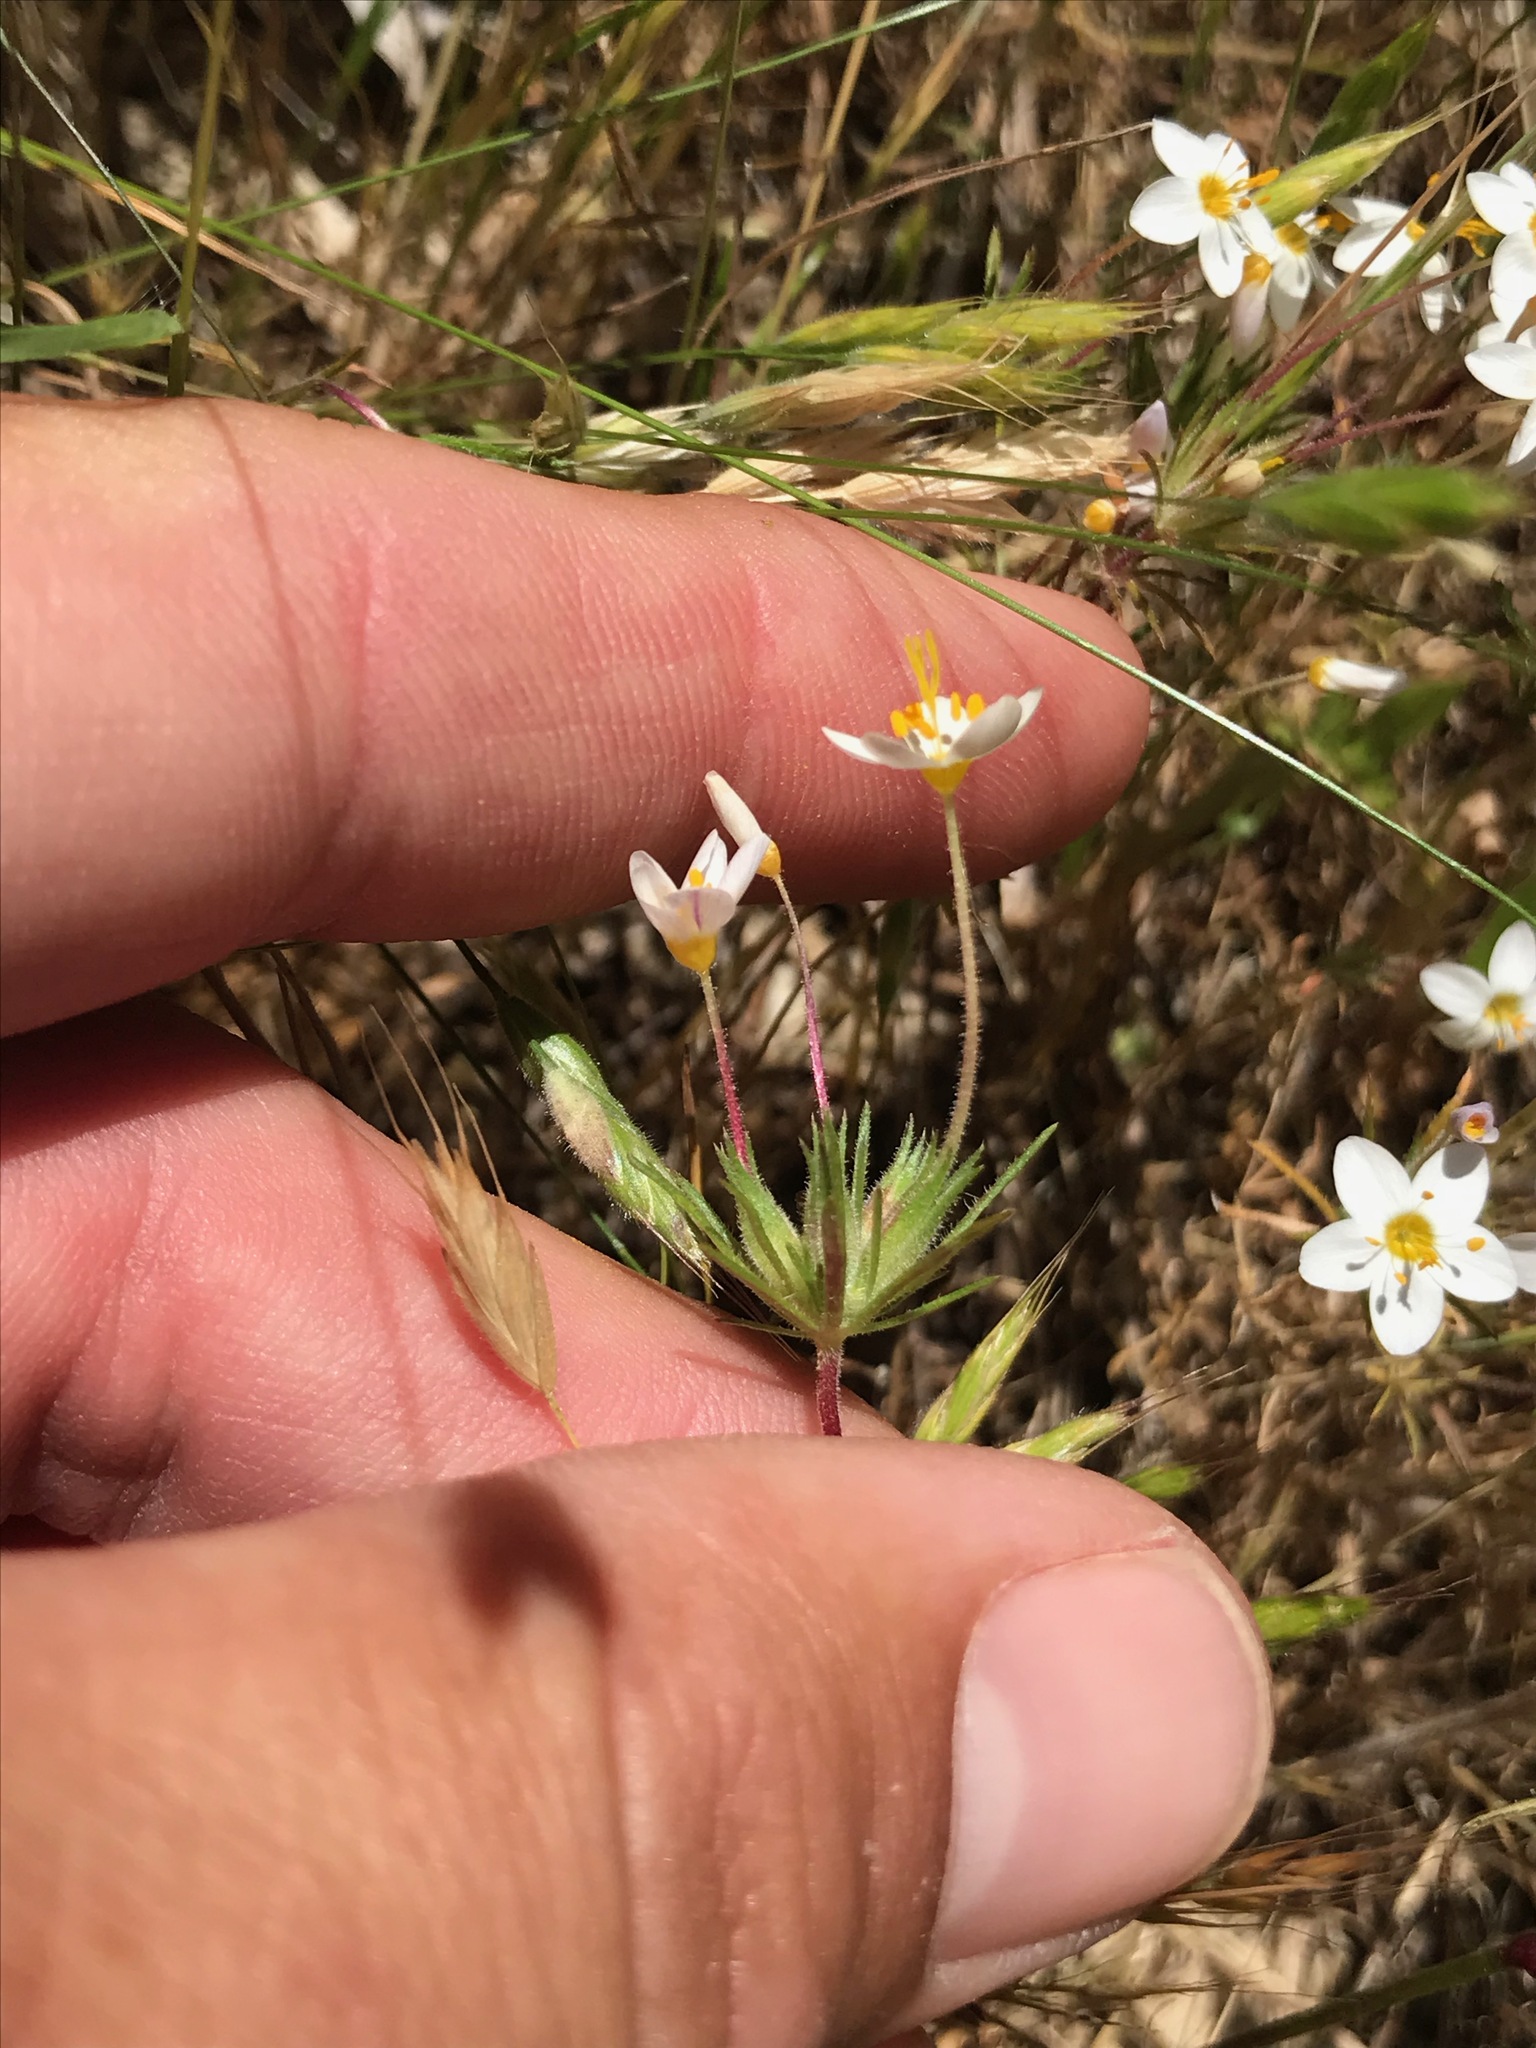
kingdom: Plantae
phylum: Tracheophyta
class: Magnoliopsida
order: Ericales
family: Polemoniaceae
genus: Leptosiphon
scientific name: Leptosiphon parviflorus
